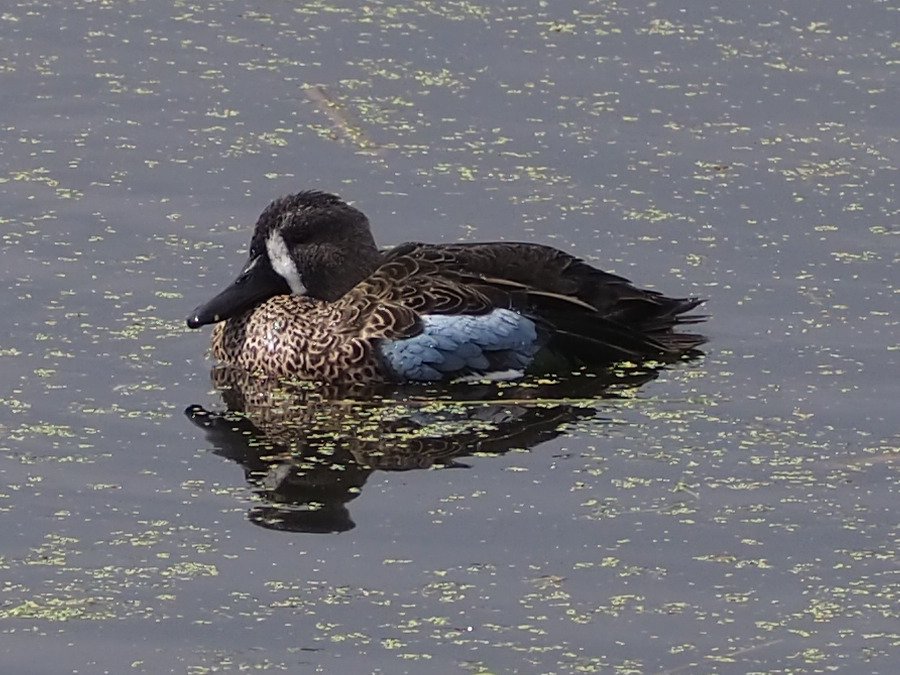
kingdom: Animalia
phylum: Chordata
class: Aves
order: Anseriformes
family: Anatidae
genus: Spatula
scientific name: Spatula discors
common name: Blue-winged teal
